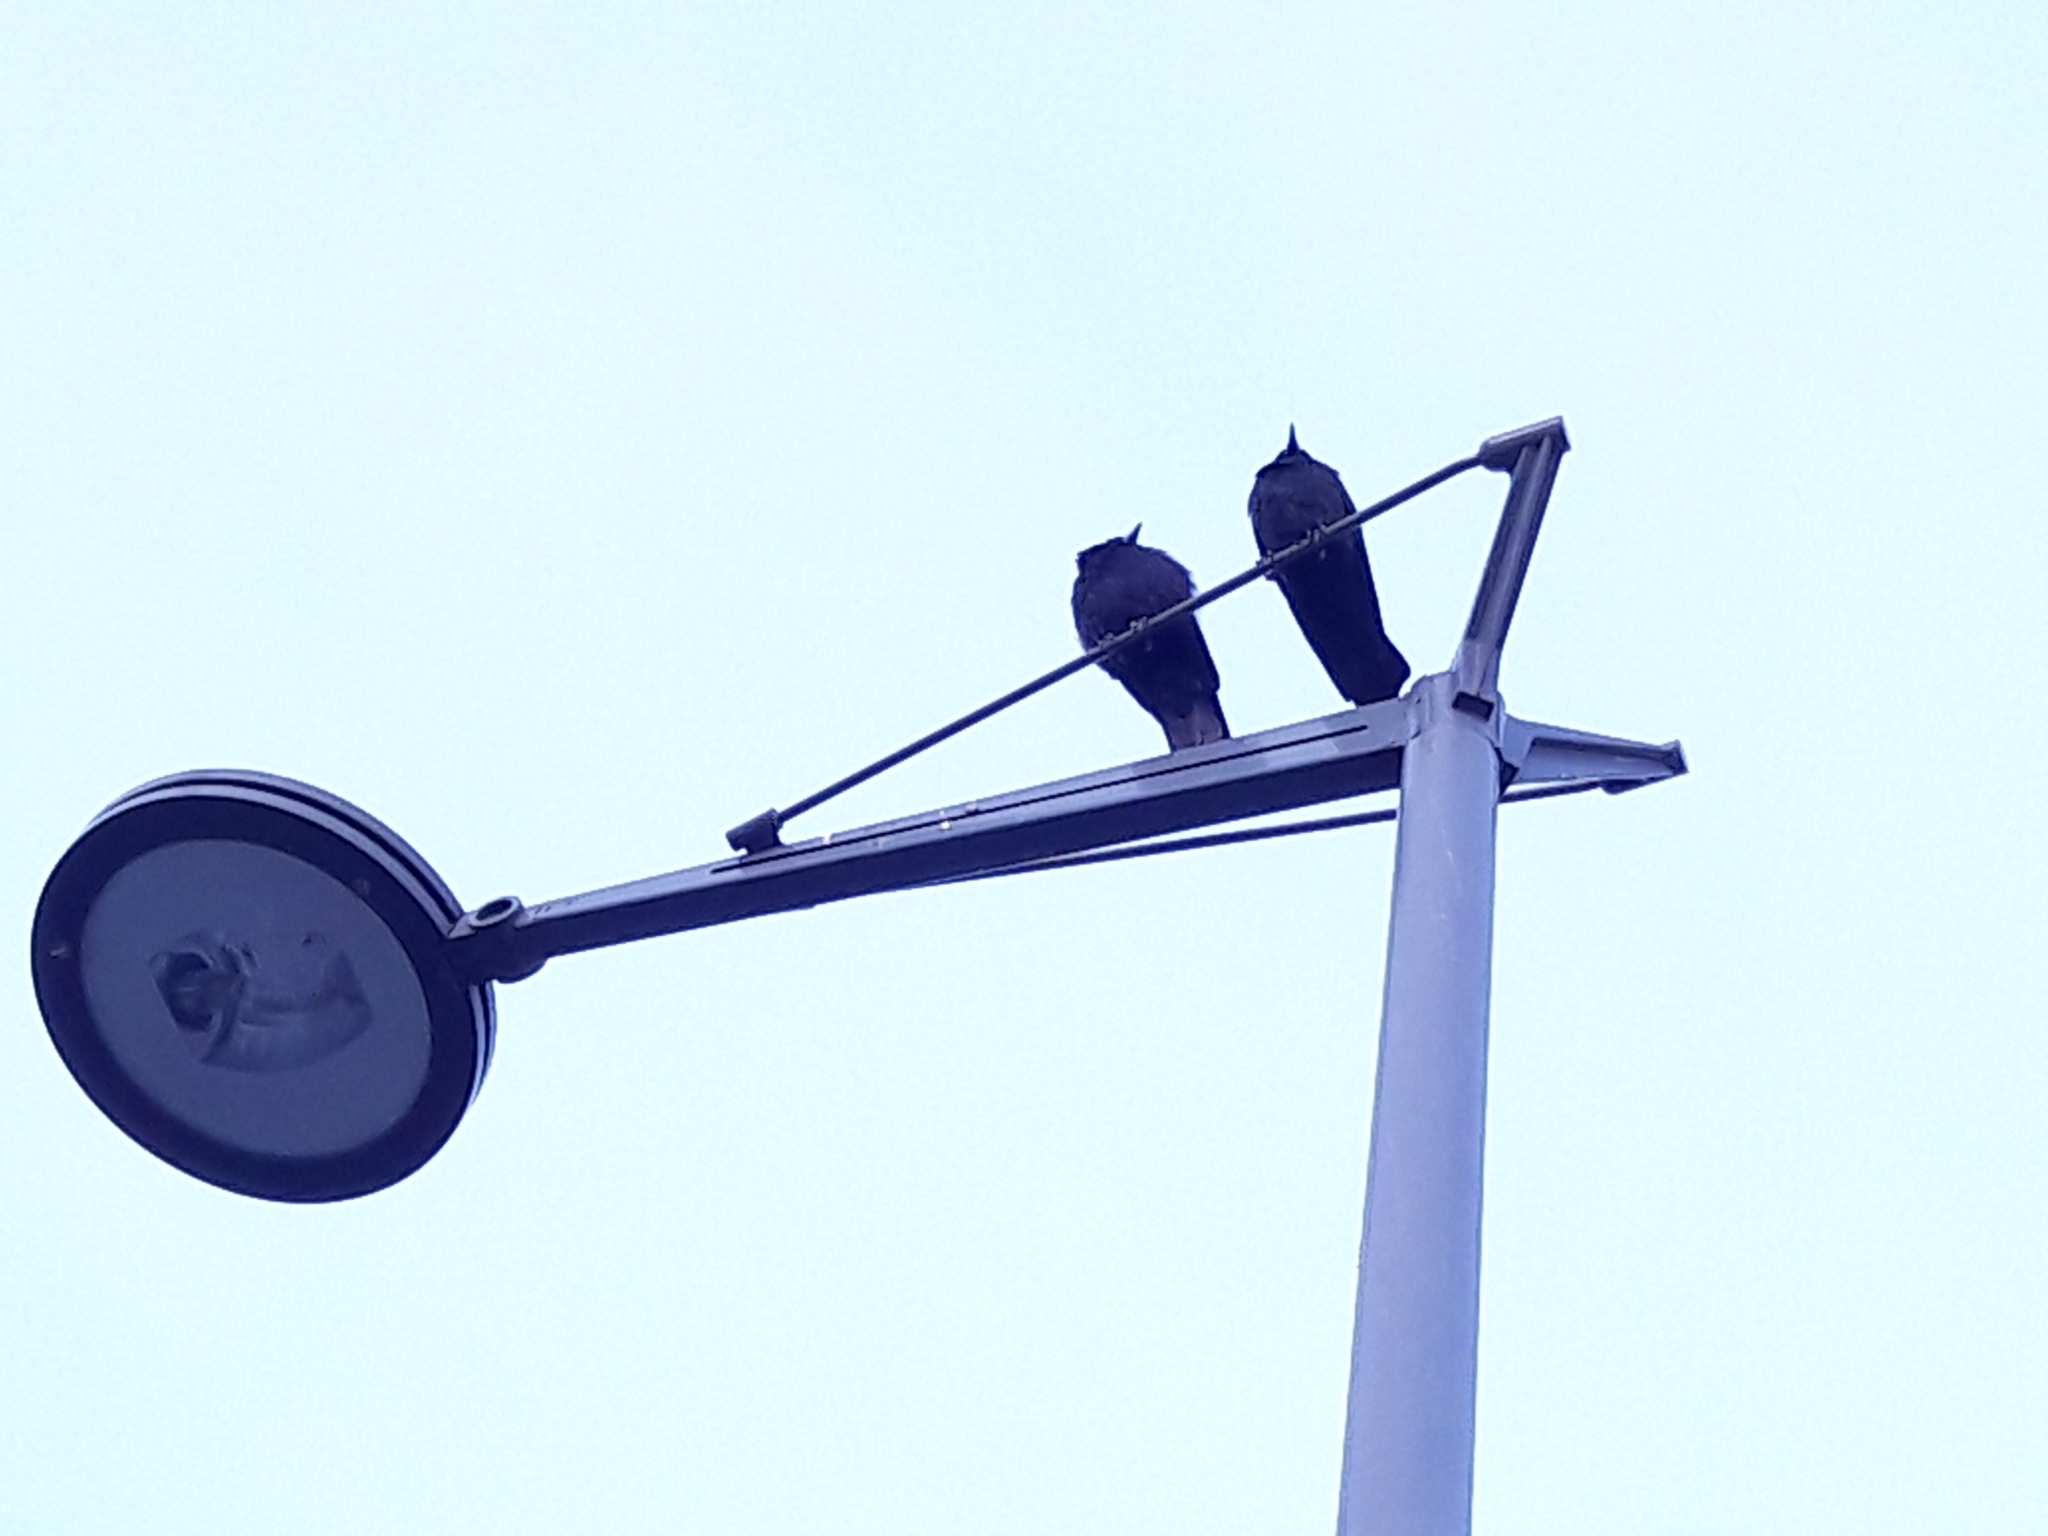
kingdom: Animalia
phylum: Chordata
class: Aves
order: Passeriformes
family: Corvidae
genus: Corvus
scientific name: Corvus corone
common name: Carrion crow
